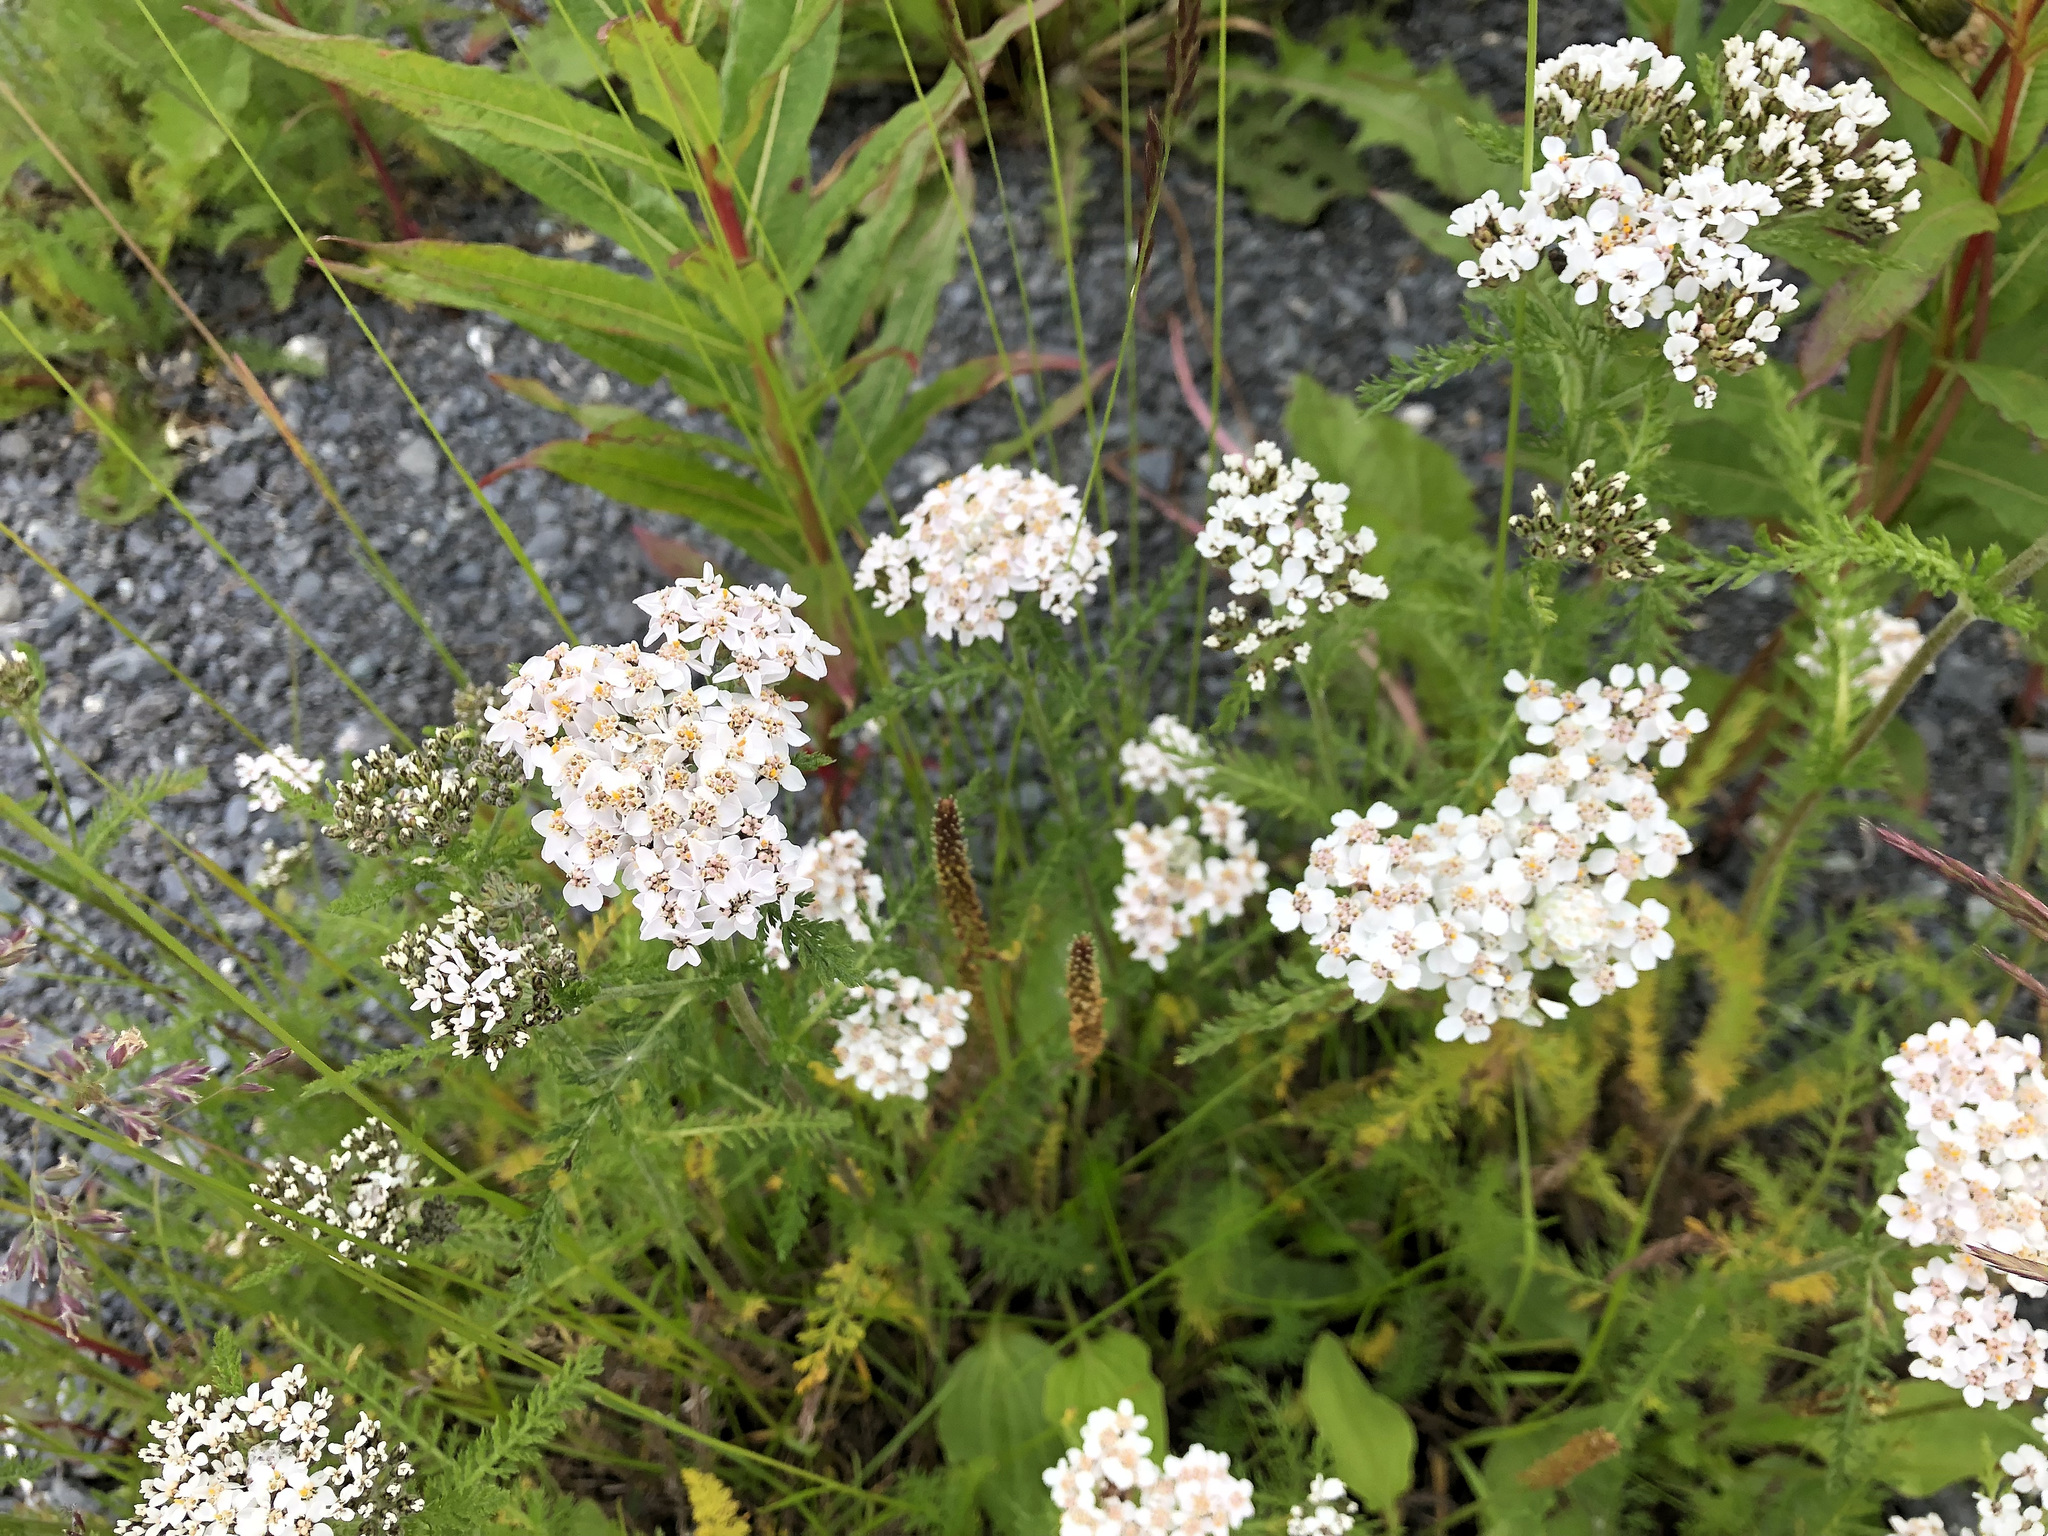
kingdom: Plantae
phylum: Tracheophyta
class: Magnoliopsida
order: Asterales
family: Asteraceae
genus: Achillea
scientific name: Achillea millefolium
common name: Yarrow
